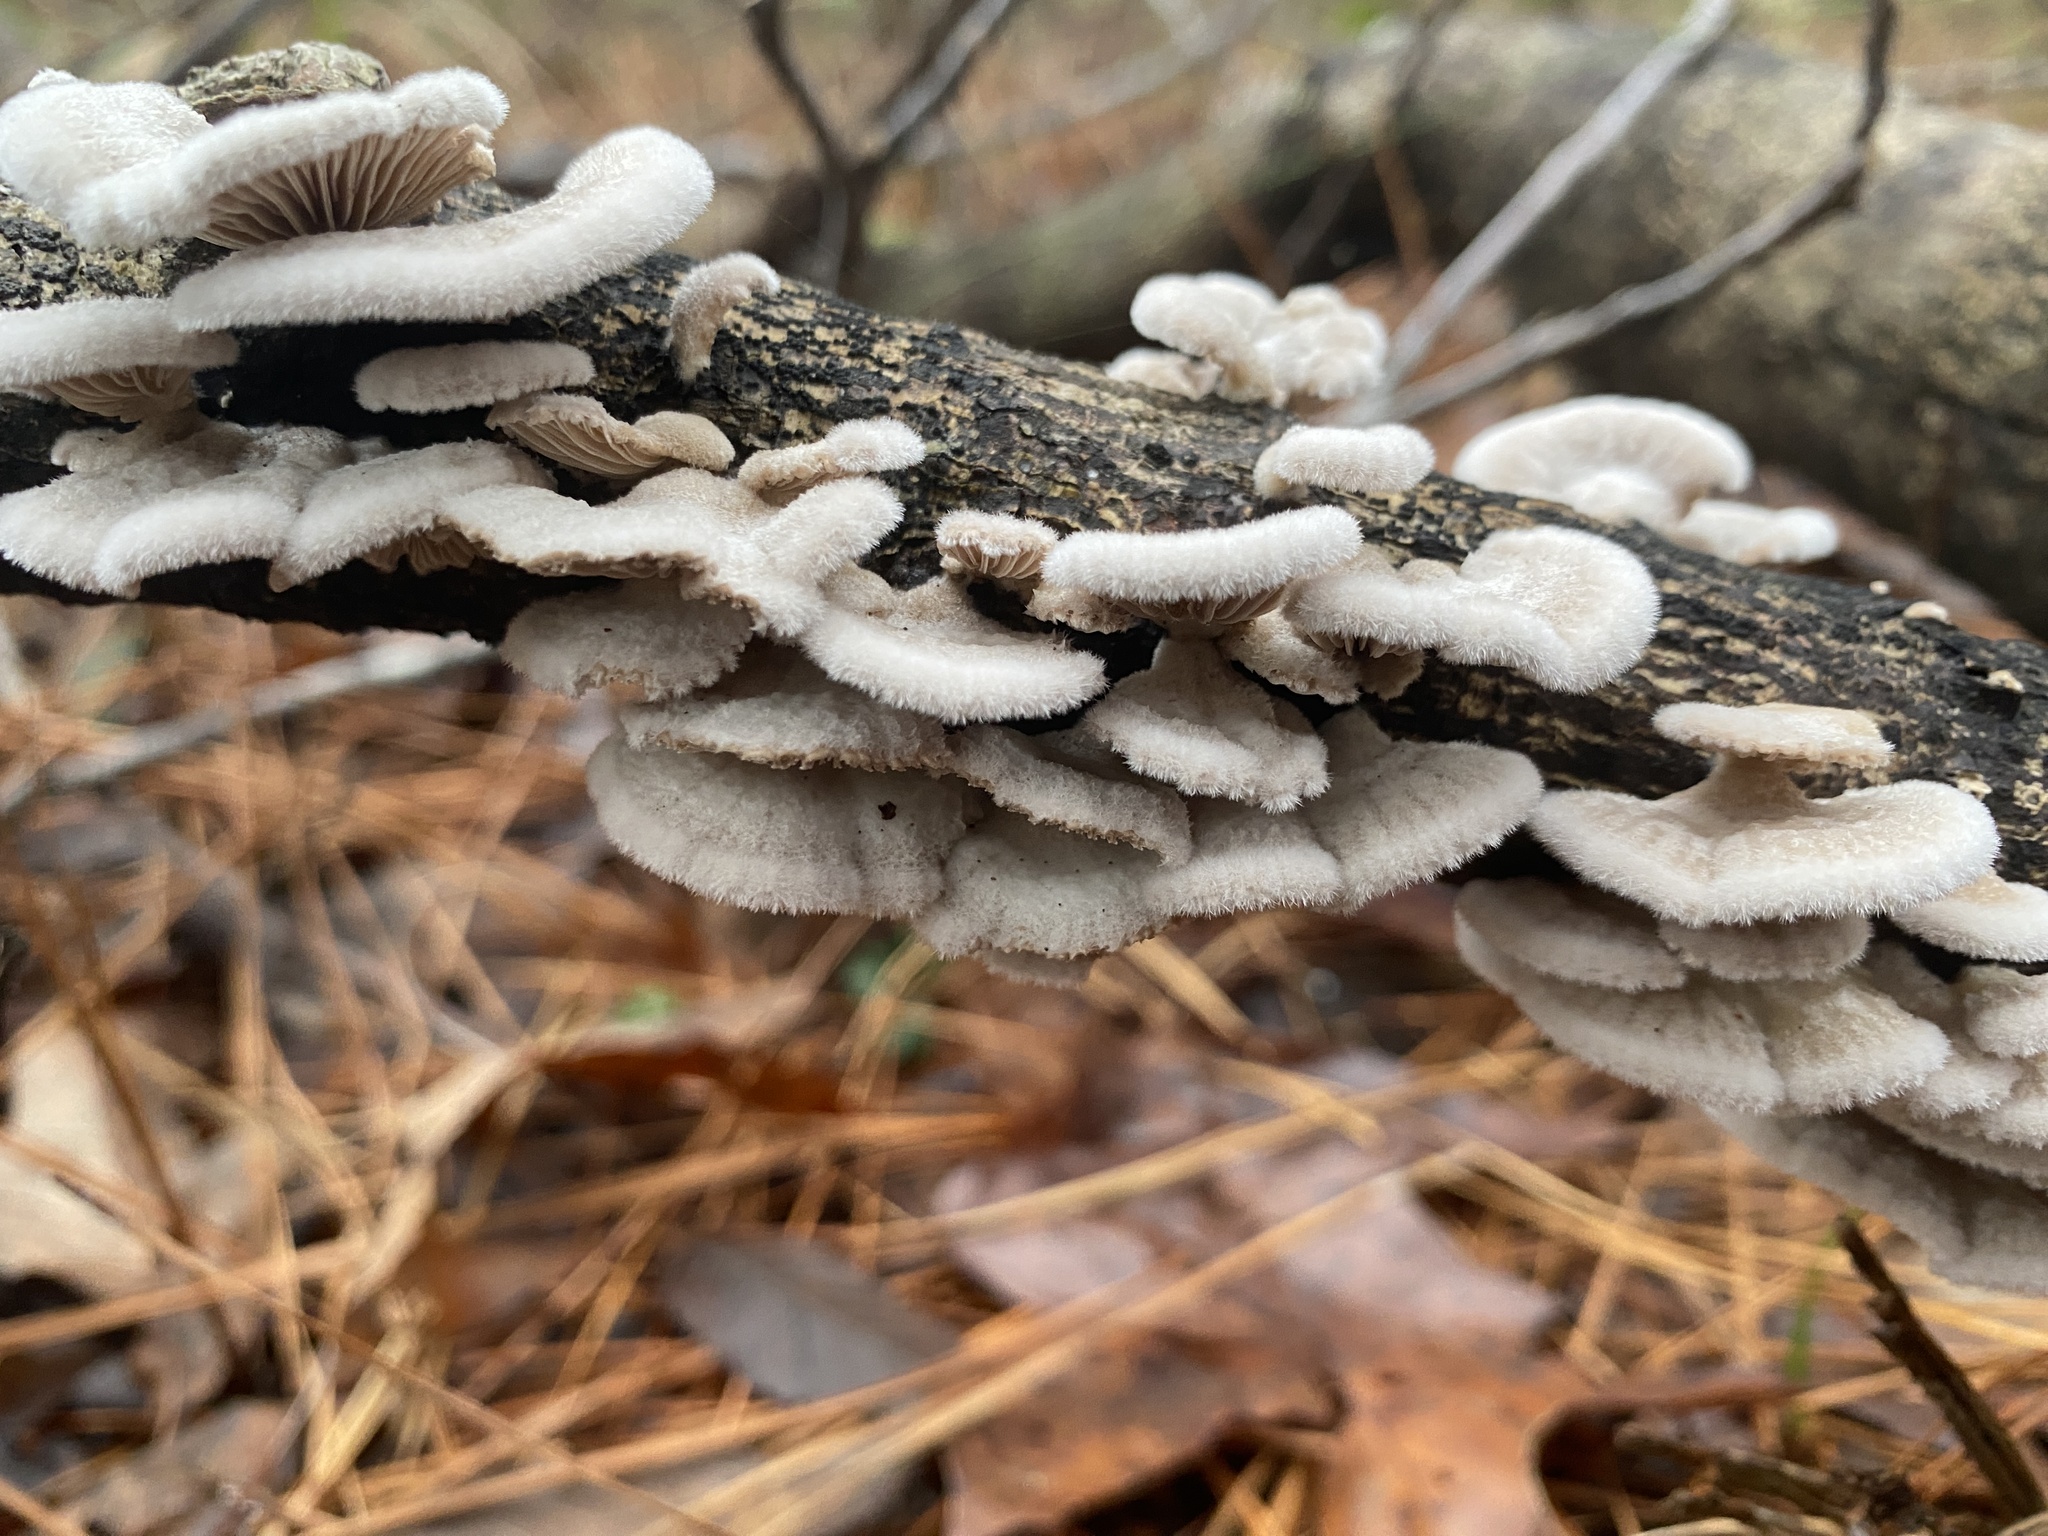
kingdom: Fungi
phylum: Basidiomycota
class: Agaricomycetes
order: Agaricales
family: Schizophyllaceae
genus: Schizophyllum
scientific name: Schizophyllum commune
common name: Common porecrust
